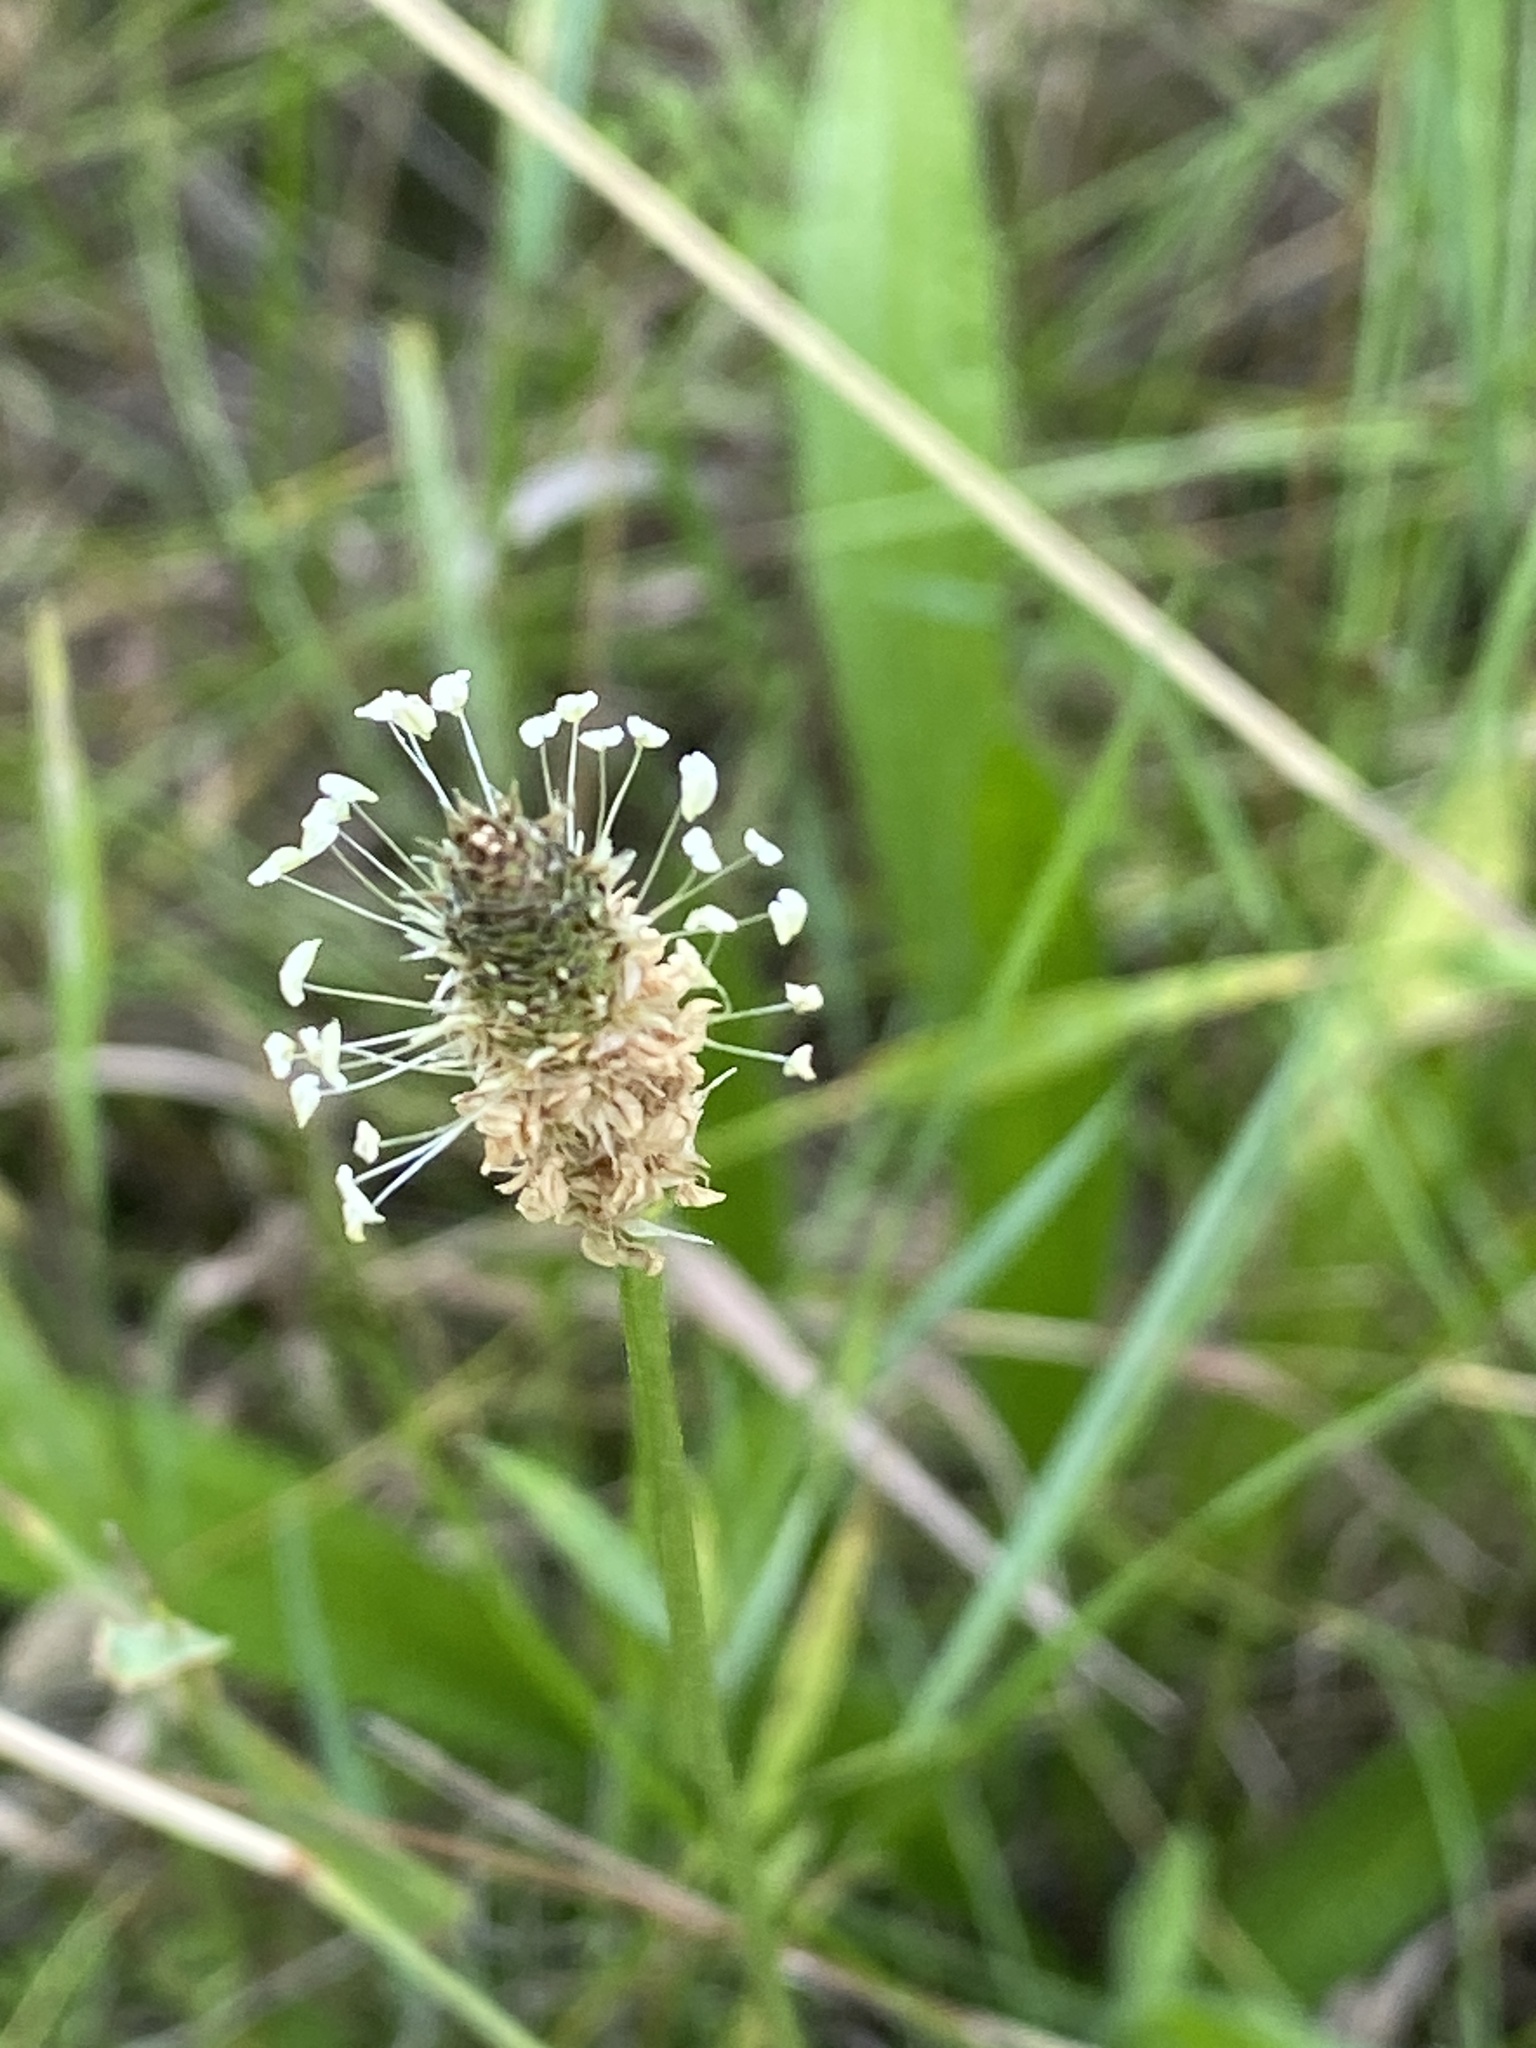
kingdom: Plantae
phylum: Tracheophyta
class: Magnoliopsida
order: Lamiales
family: Plantaginaceae
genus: Plantago
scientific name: Plantago lanceolata
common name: Ribwort plantain
